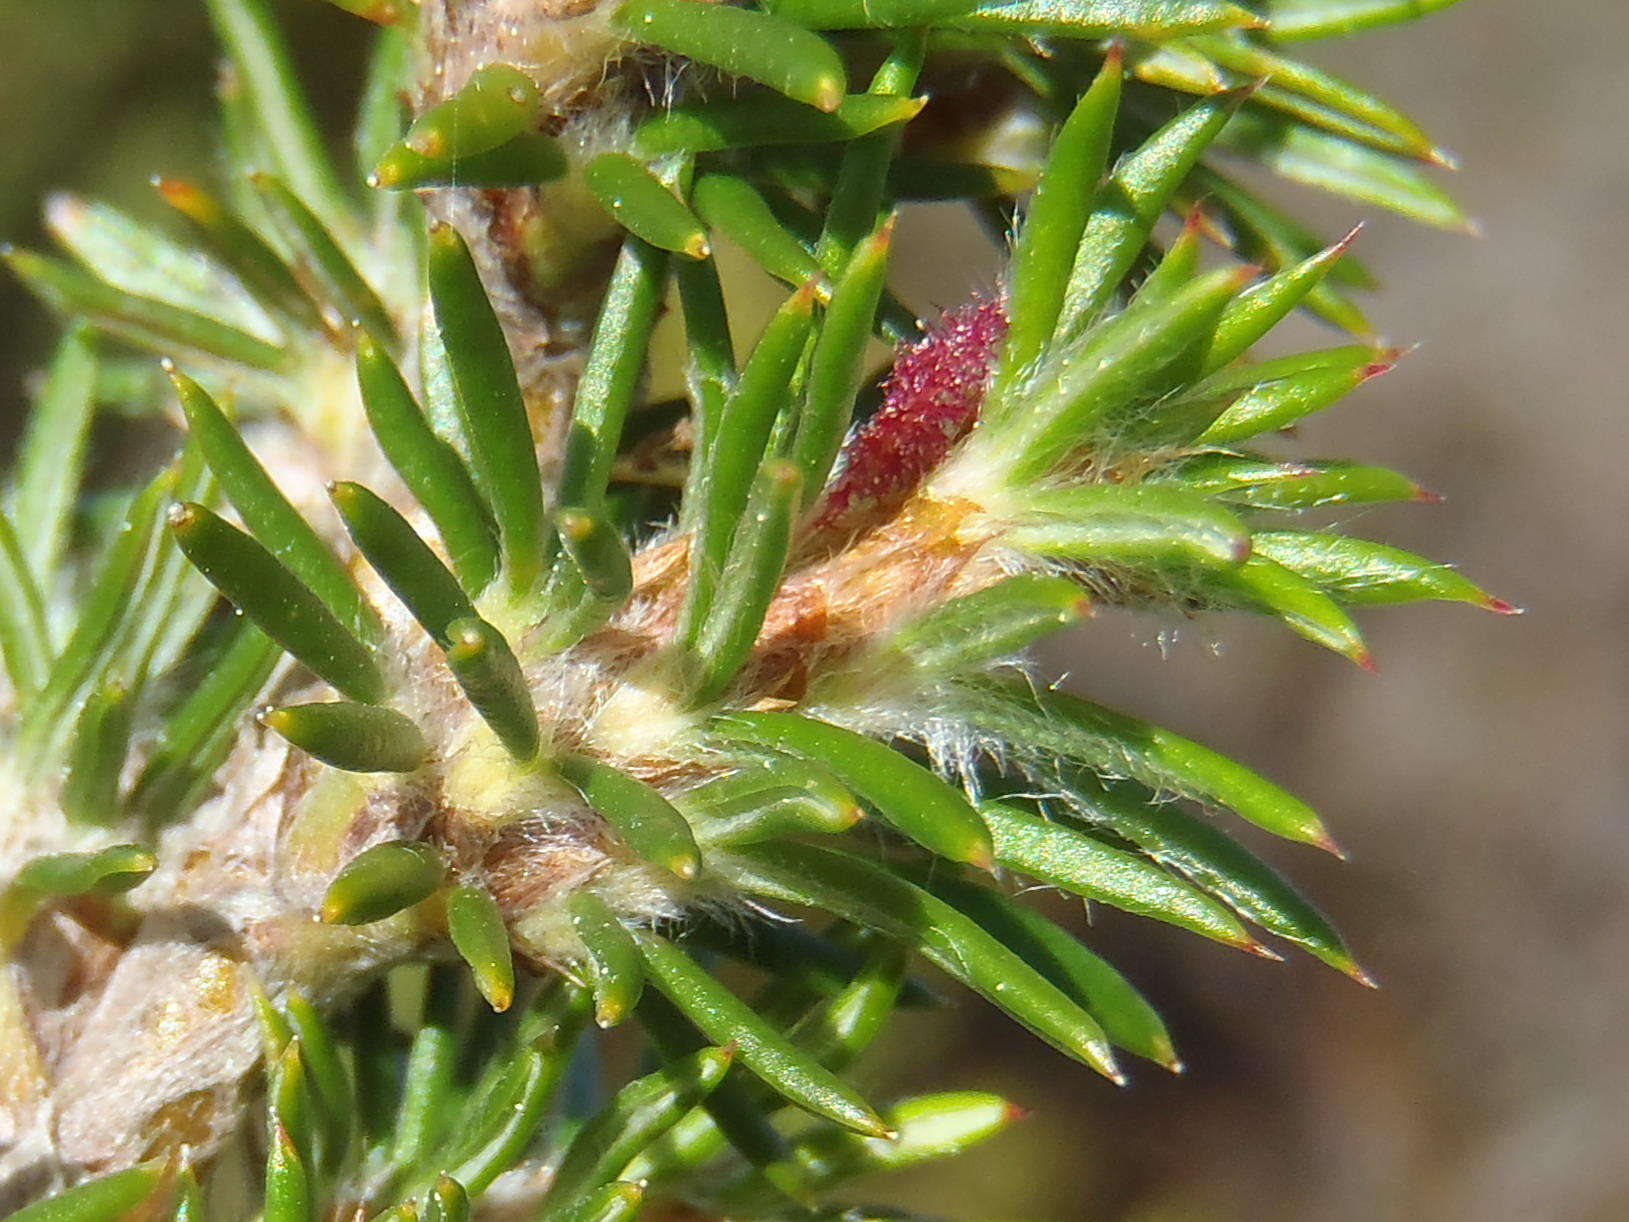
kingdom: Plantae
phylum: Tracheophyta
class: Magnoliopsida
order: Rosales
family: Rosaceae
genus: Cliffortia
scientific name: Cliffortia stricta
